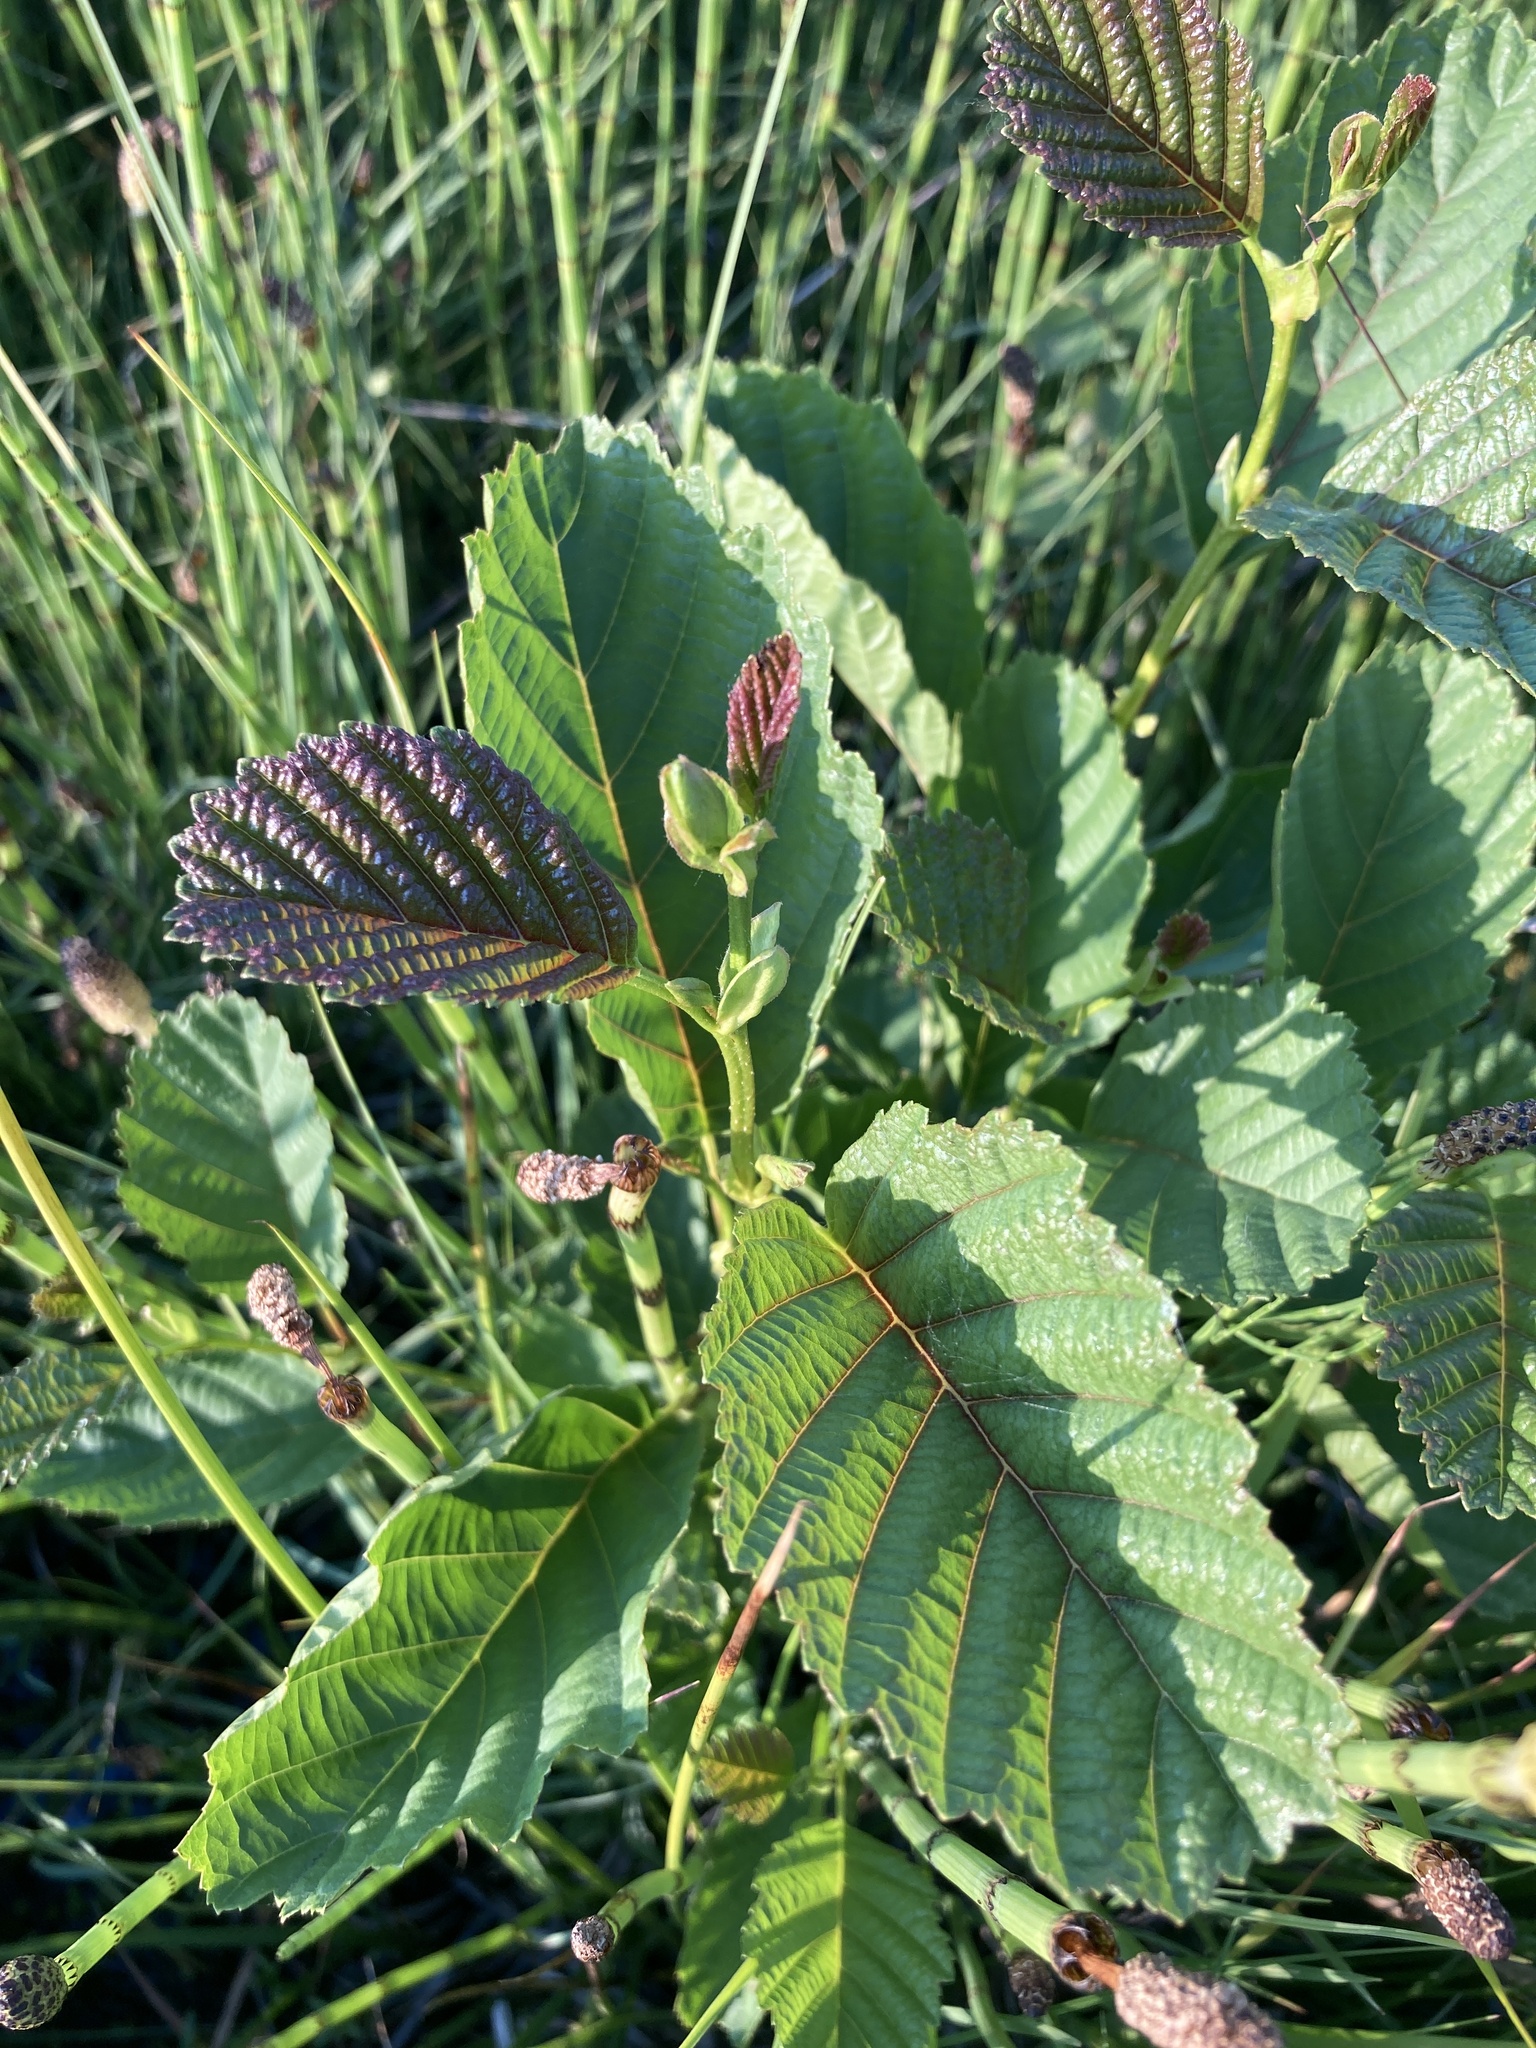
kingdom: Plantae
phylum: Tracheophyta
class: Magnoliopsida
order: Fagales
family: Betulaceae
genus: Alnus
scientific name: Alnus glutinosa
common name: Black alder
